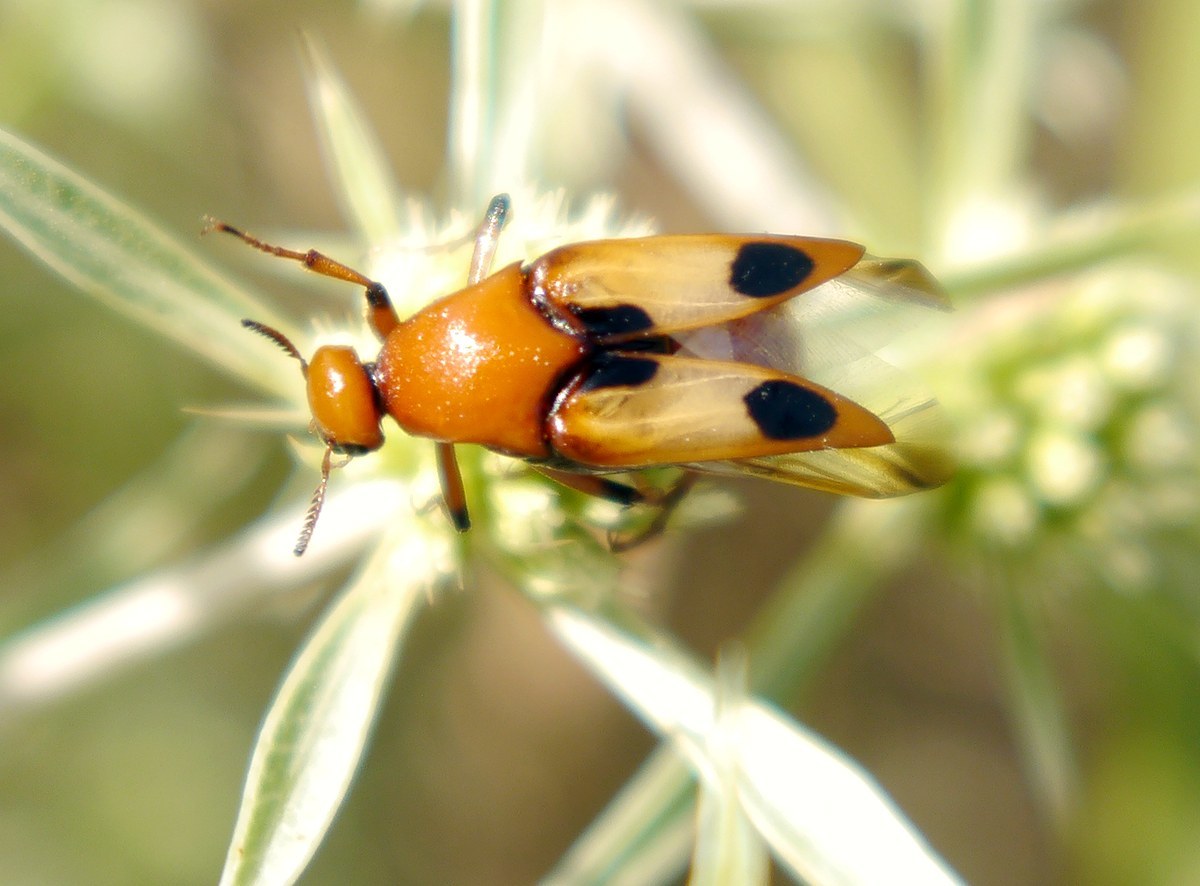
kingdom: Animalia
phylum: Arthropoda
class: Insecta
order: Coleoptera
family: Ripiphoridae
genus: Macrosiagon
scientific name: Macrosiagon bimaculata
